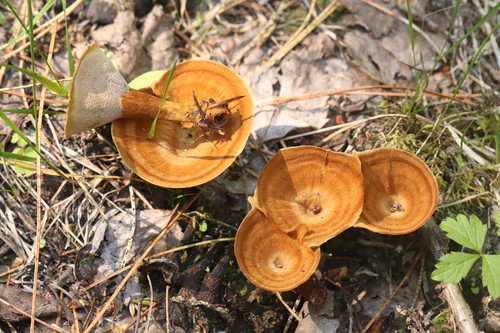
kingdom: Fungi
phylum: Basidiomycota
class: Agaricomycetes
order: Hymenochaetales
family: Hymenochaetaceae
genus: Coltricia
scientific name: Coltricia perennis
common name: Tiger's eye
